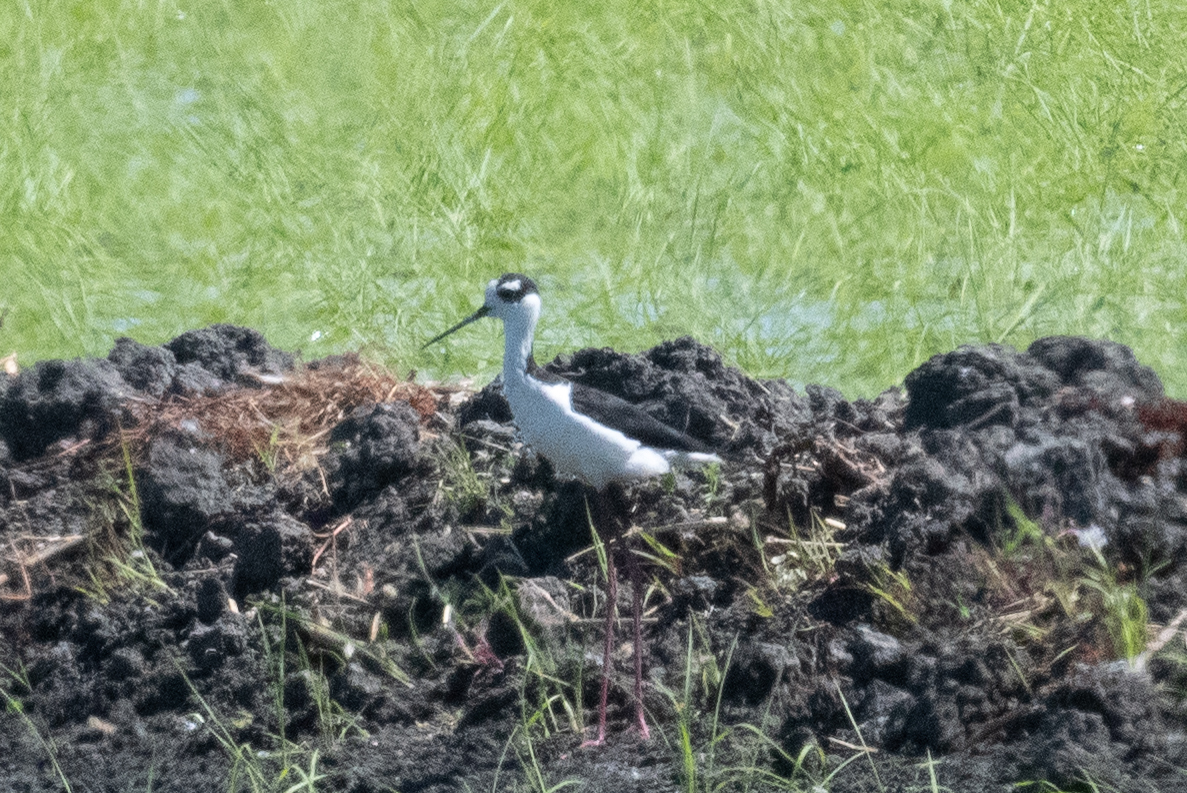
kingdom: Animalia
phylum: Chordata
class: Aves
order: Charadriiformes
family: Recurvirostridae
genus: Himantopus
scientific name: Himantopus mexicanus
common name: Black-necked stilt
